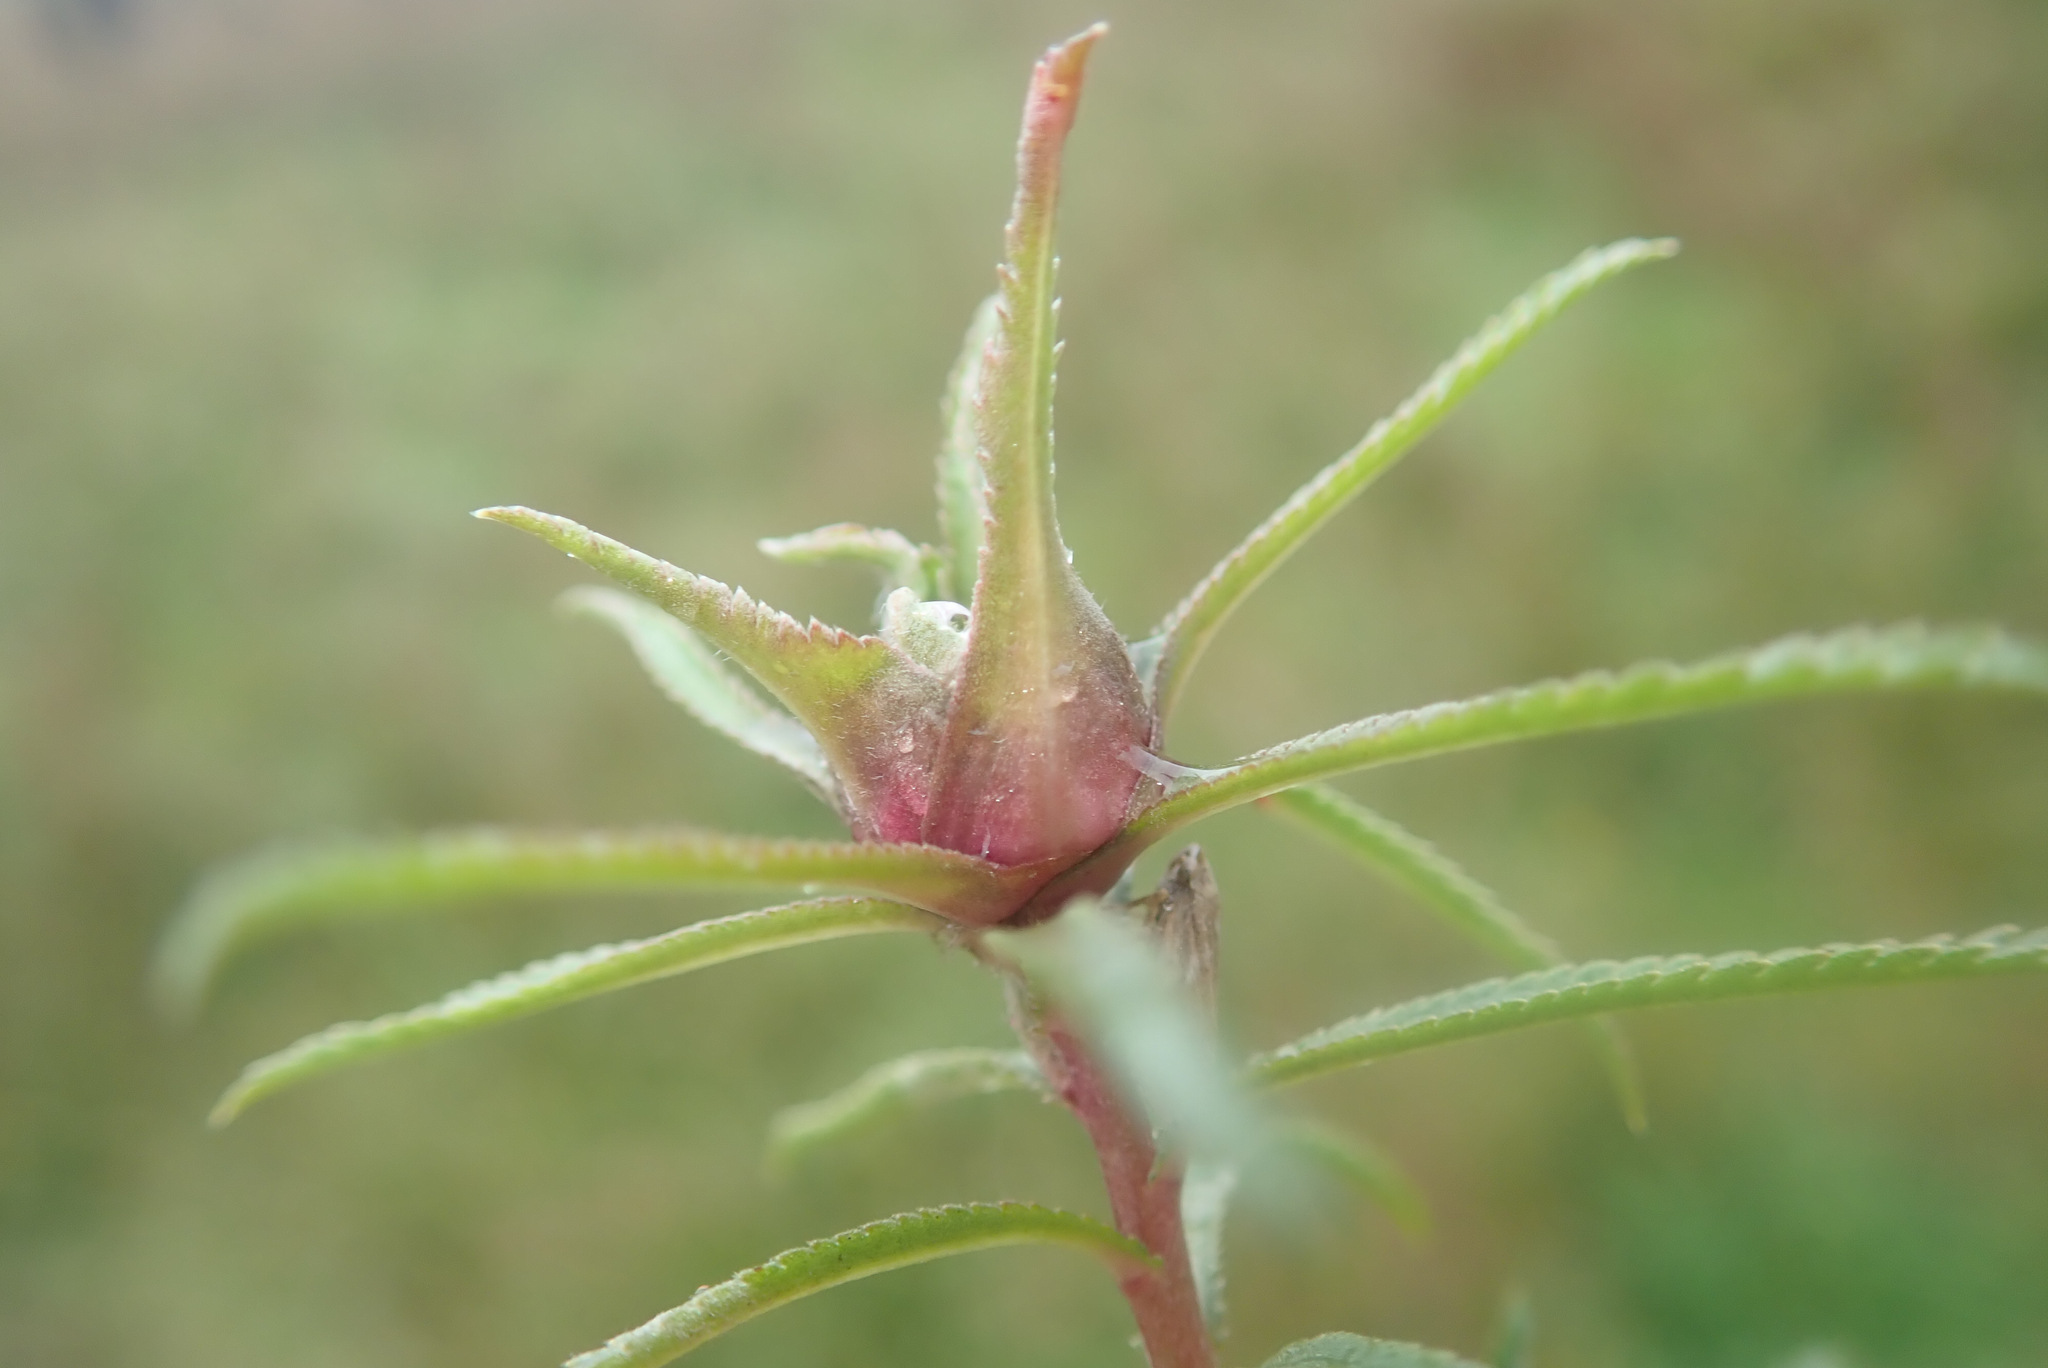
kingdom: Animalia
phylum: Arthropoda
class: Insecta
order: Diptera
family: Cecidomyiidae
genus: Rhopalomyia
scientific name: Rhopalomyia ptarmicae
